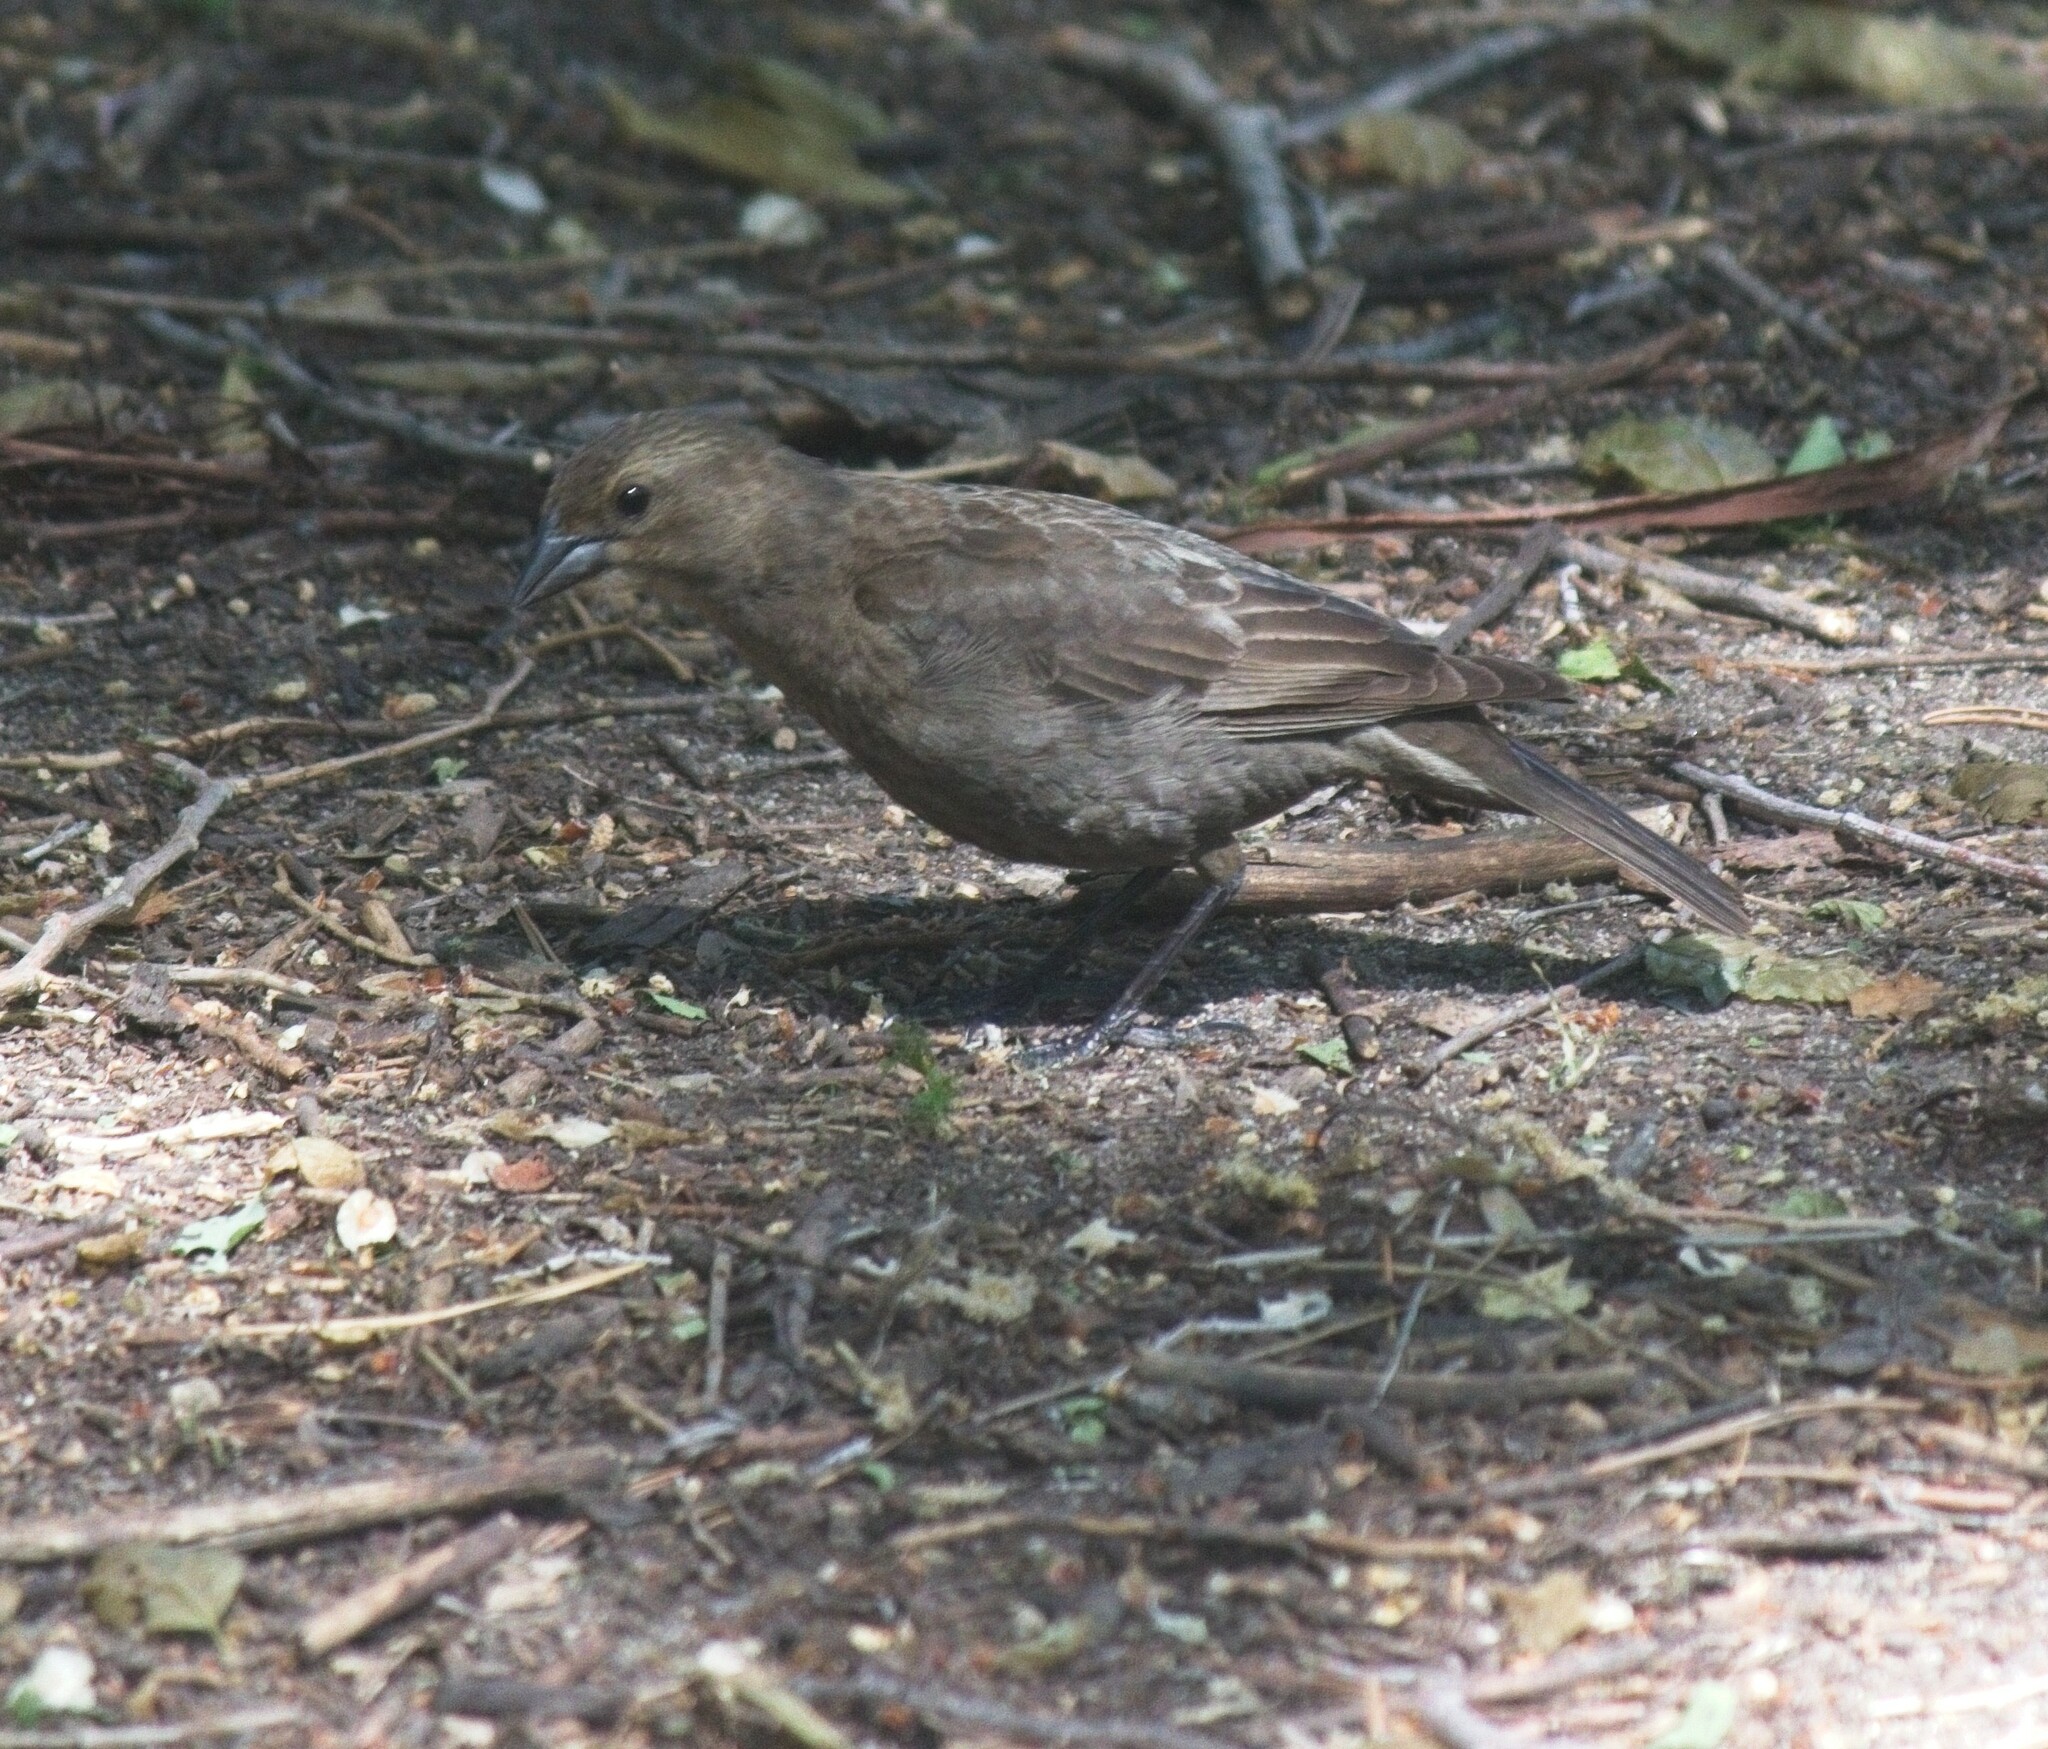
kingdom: Animalia
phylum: Chordata
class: Aves
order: Passeriformes
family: Icteridae
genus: Molothrus
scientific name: Molothrus ater
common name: Brown-headed cowbird
